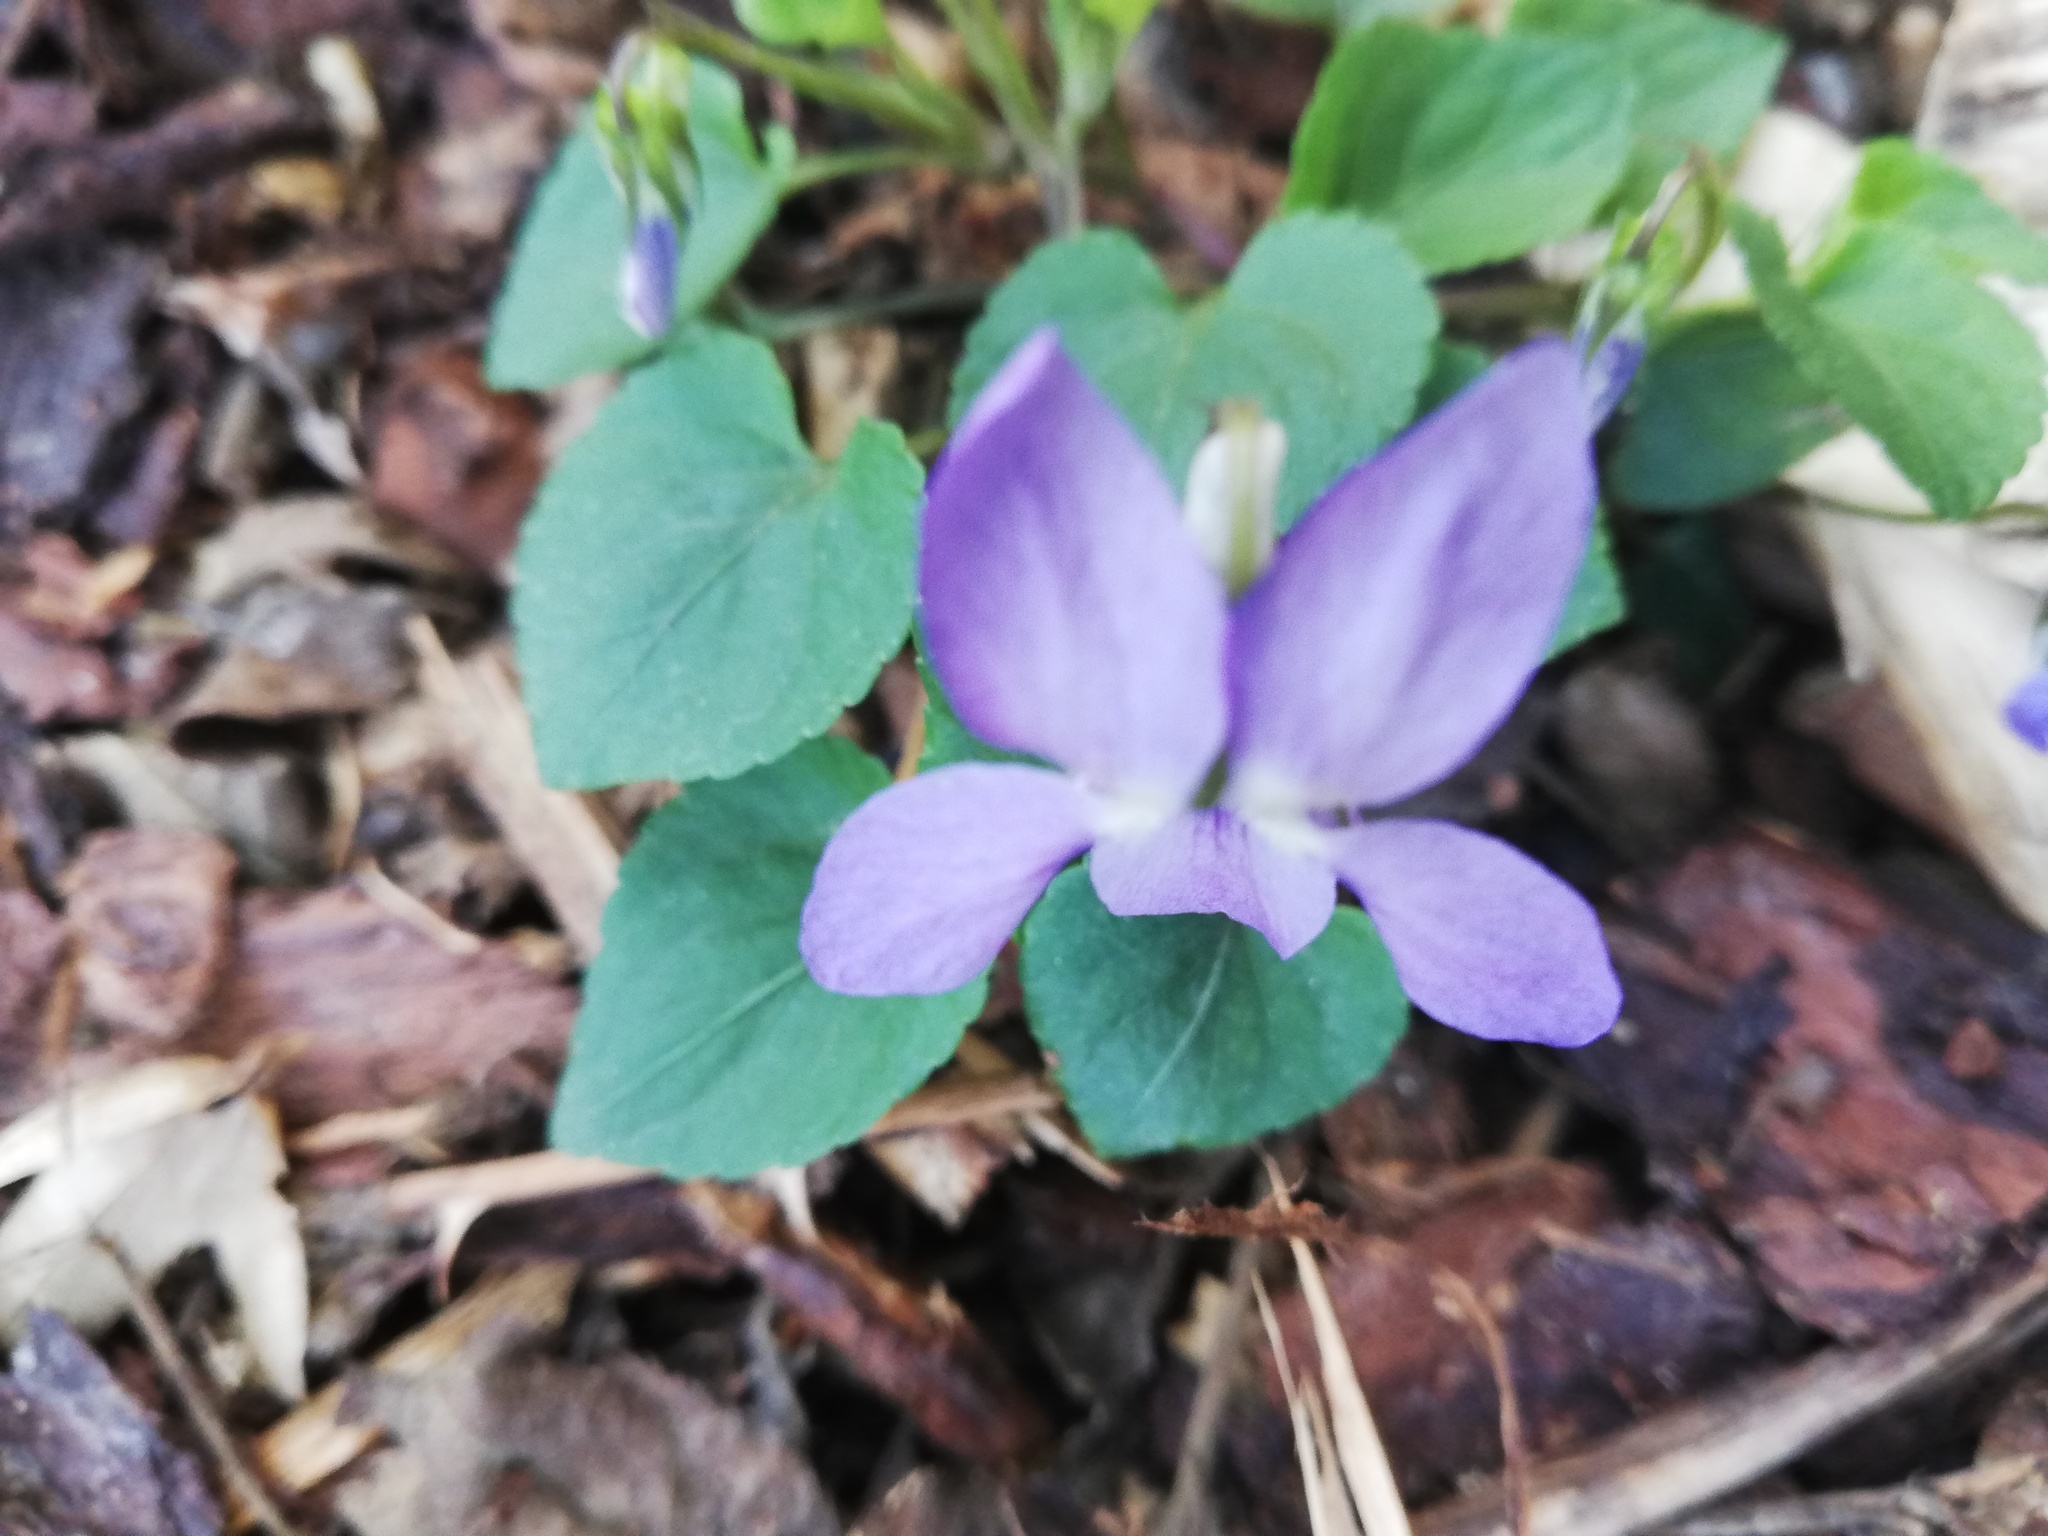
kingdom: Plantae
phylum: Tracheophyta
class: Magnoliopsida
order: Malpighiales
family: Violaceae
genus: Viola
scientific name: Viola riviniana
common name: Common dog-violet
